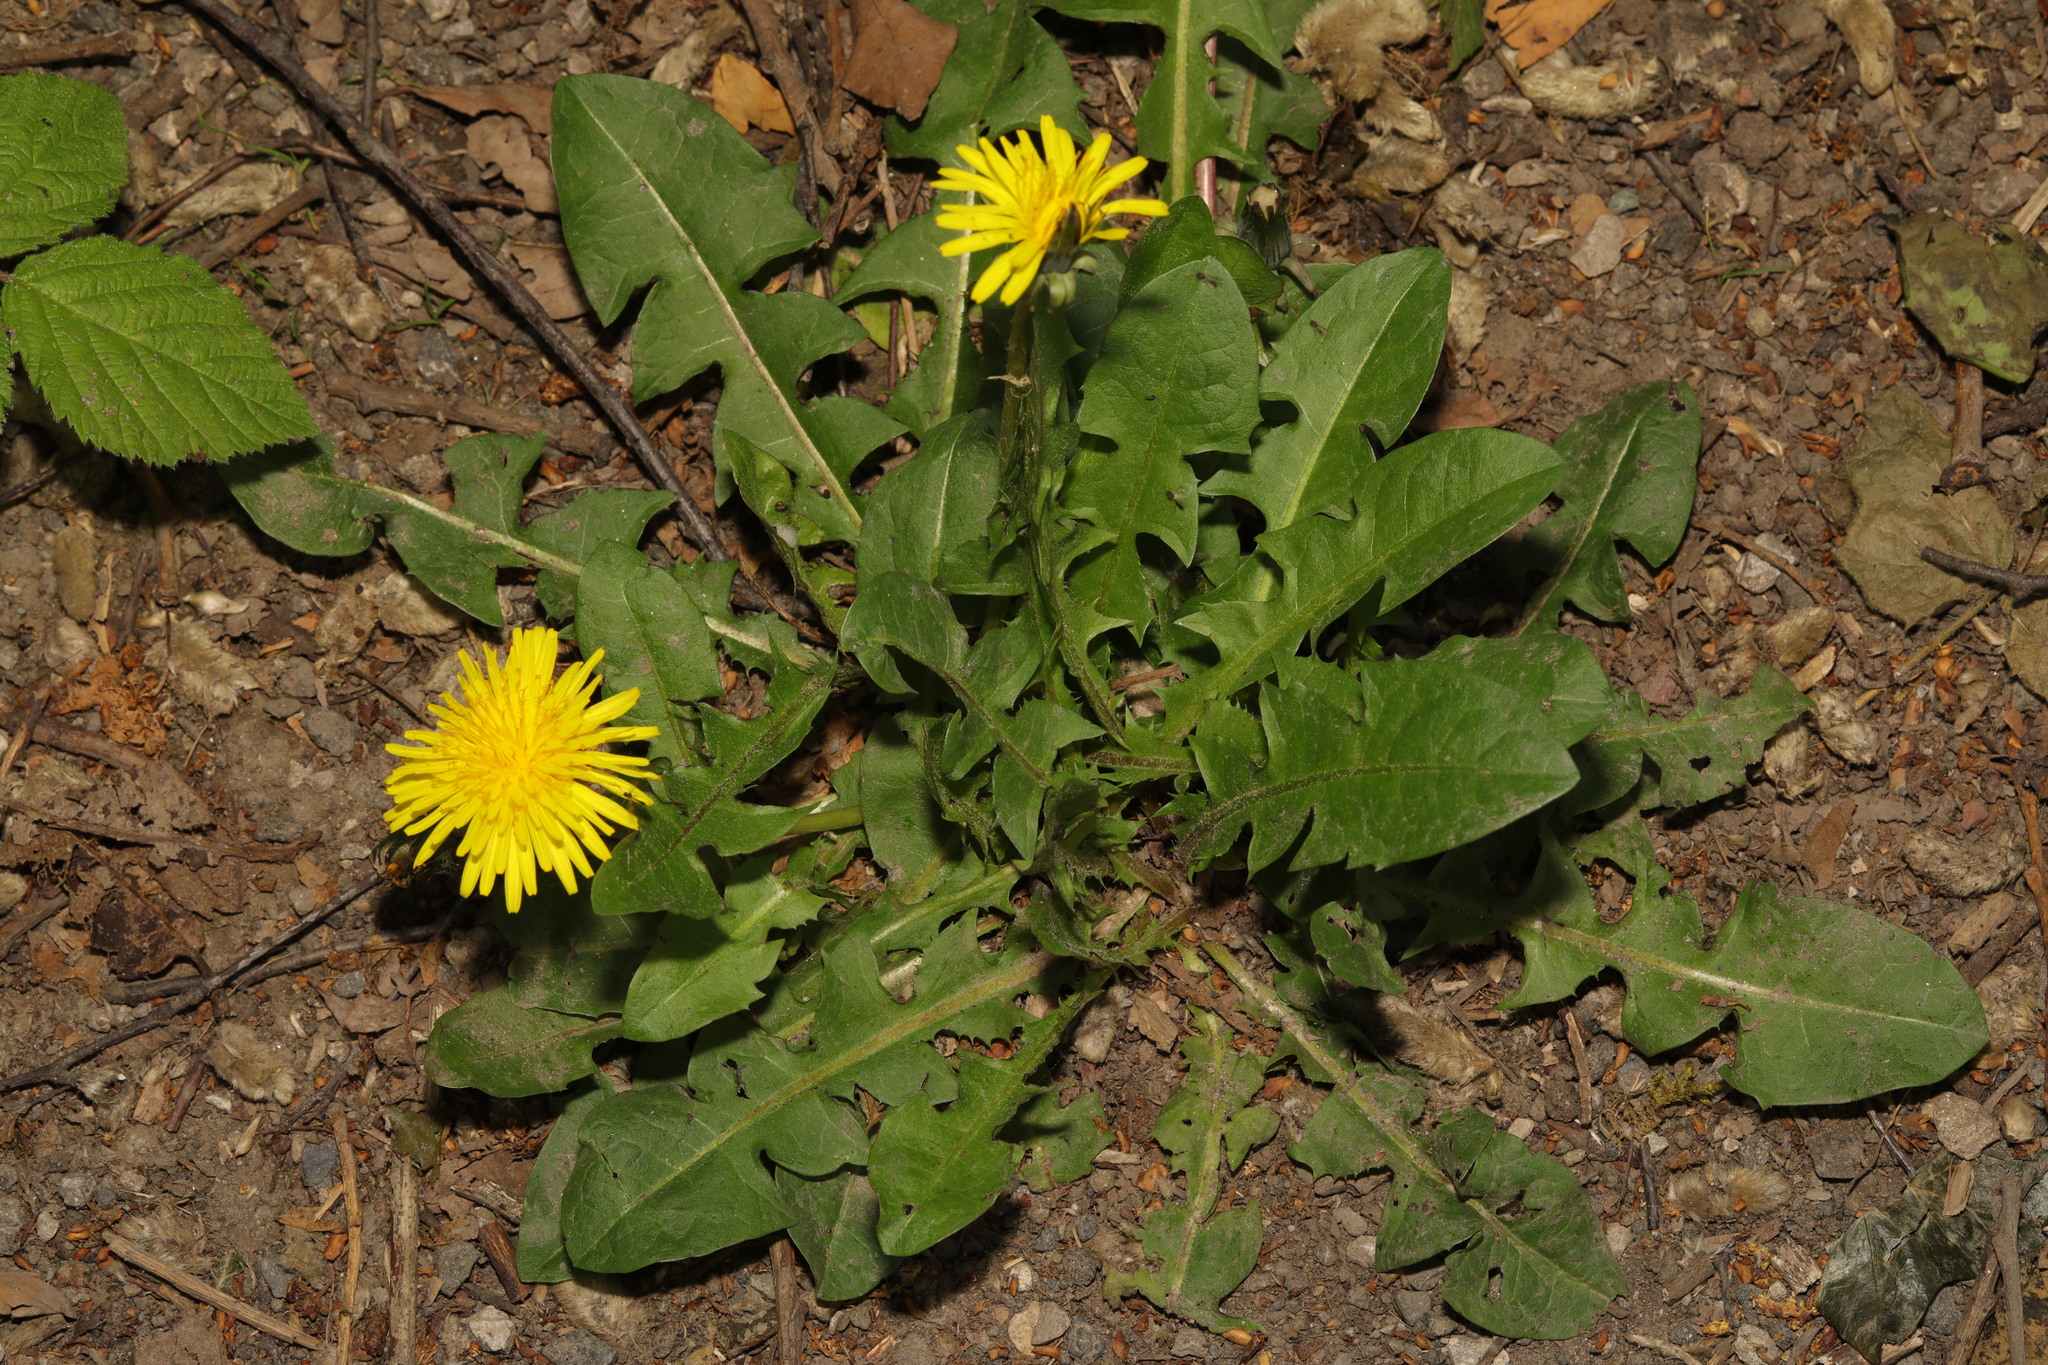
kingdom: Plantae
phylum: Tracheophyta
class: Magnoliopsida
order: Asterales
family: Asteraceae
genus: Taraxacum
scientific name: Taraxacum officinale
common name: Common dandelion
